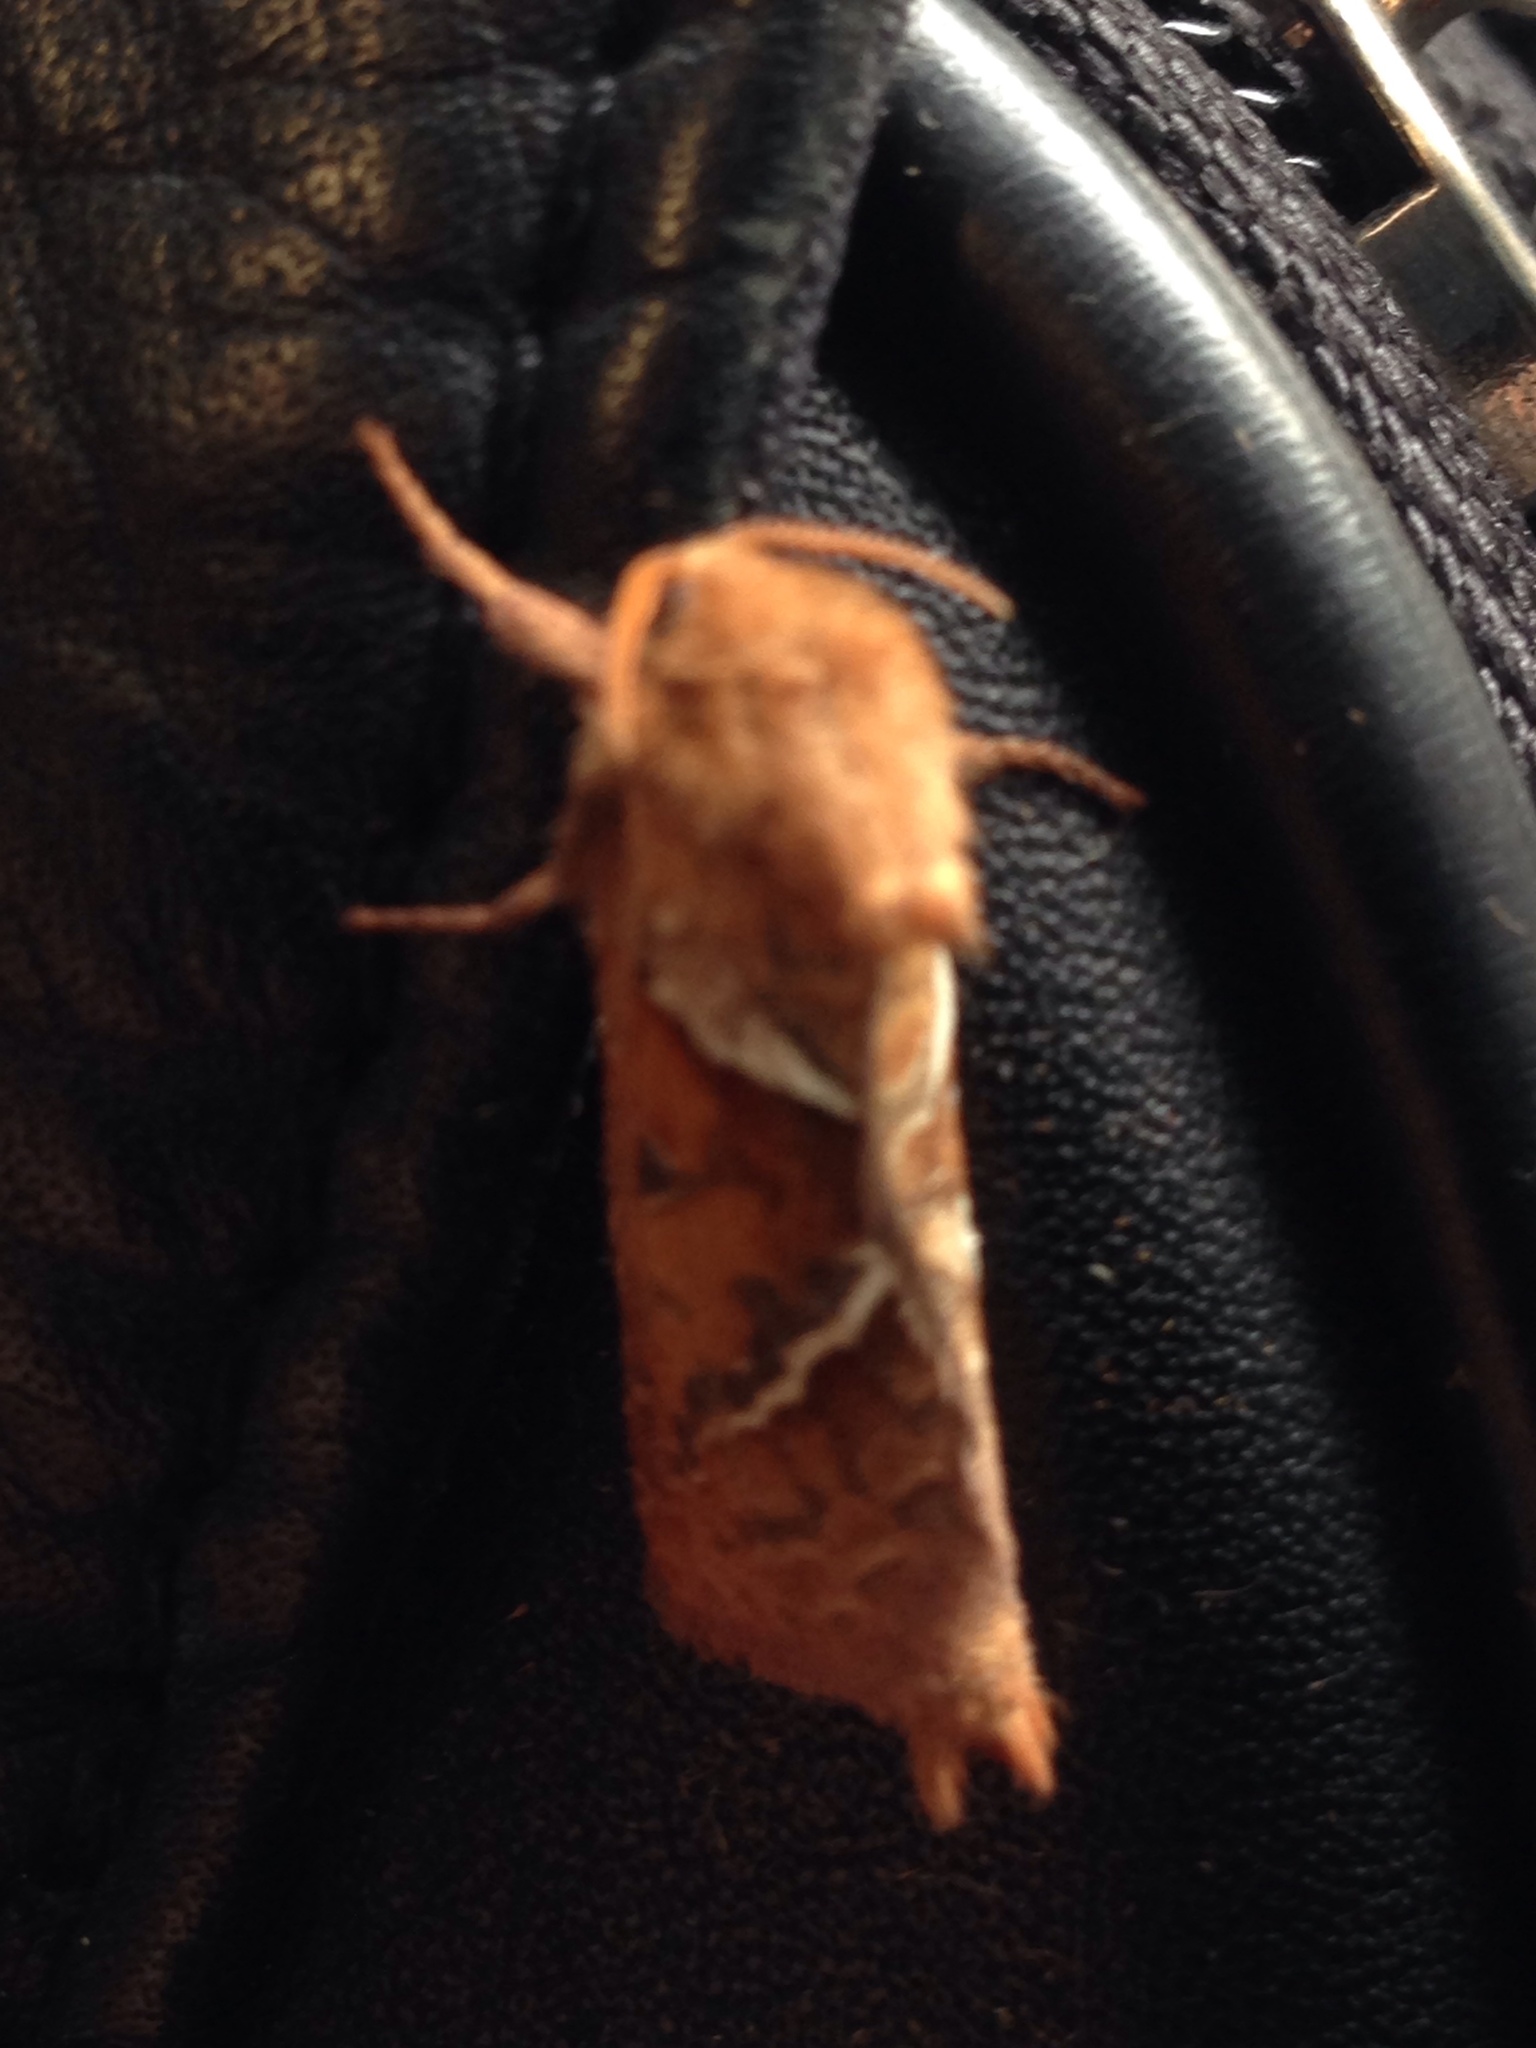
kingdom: Animalia
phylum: Arthropoda
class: Insecta
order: Lepidoptera
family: Hepialidae
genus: Triodia
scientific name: Triodia sylvina
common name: Orange swift
